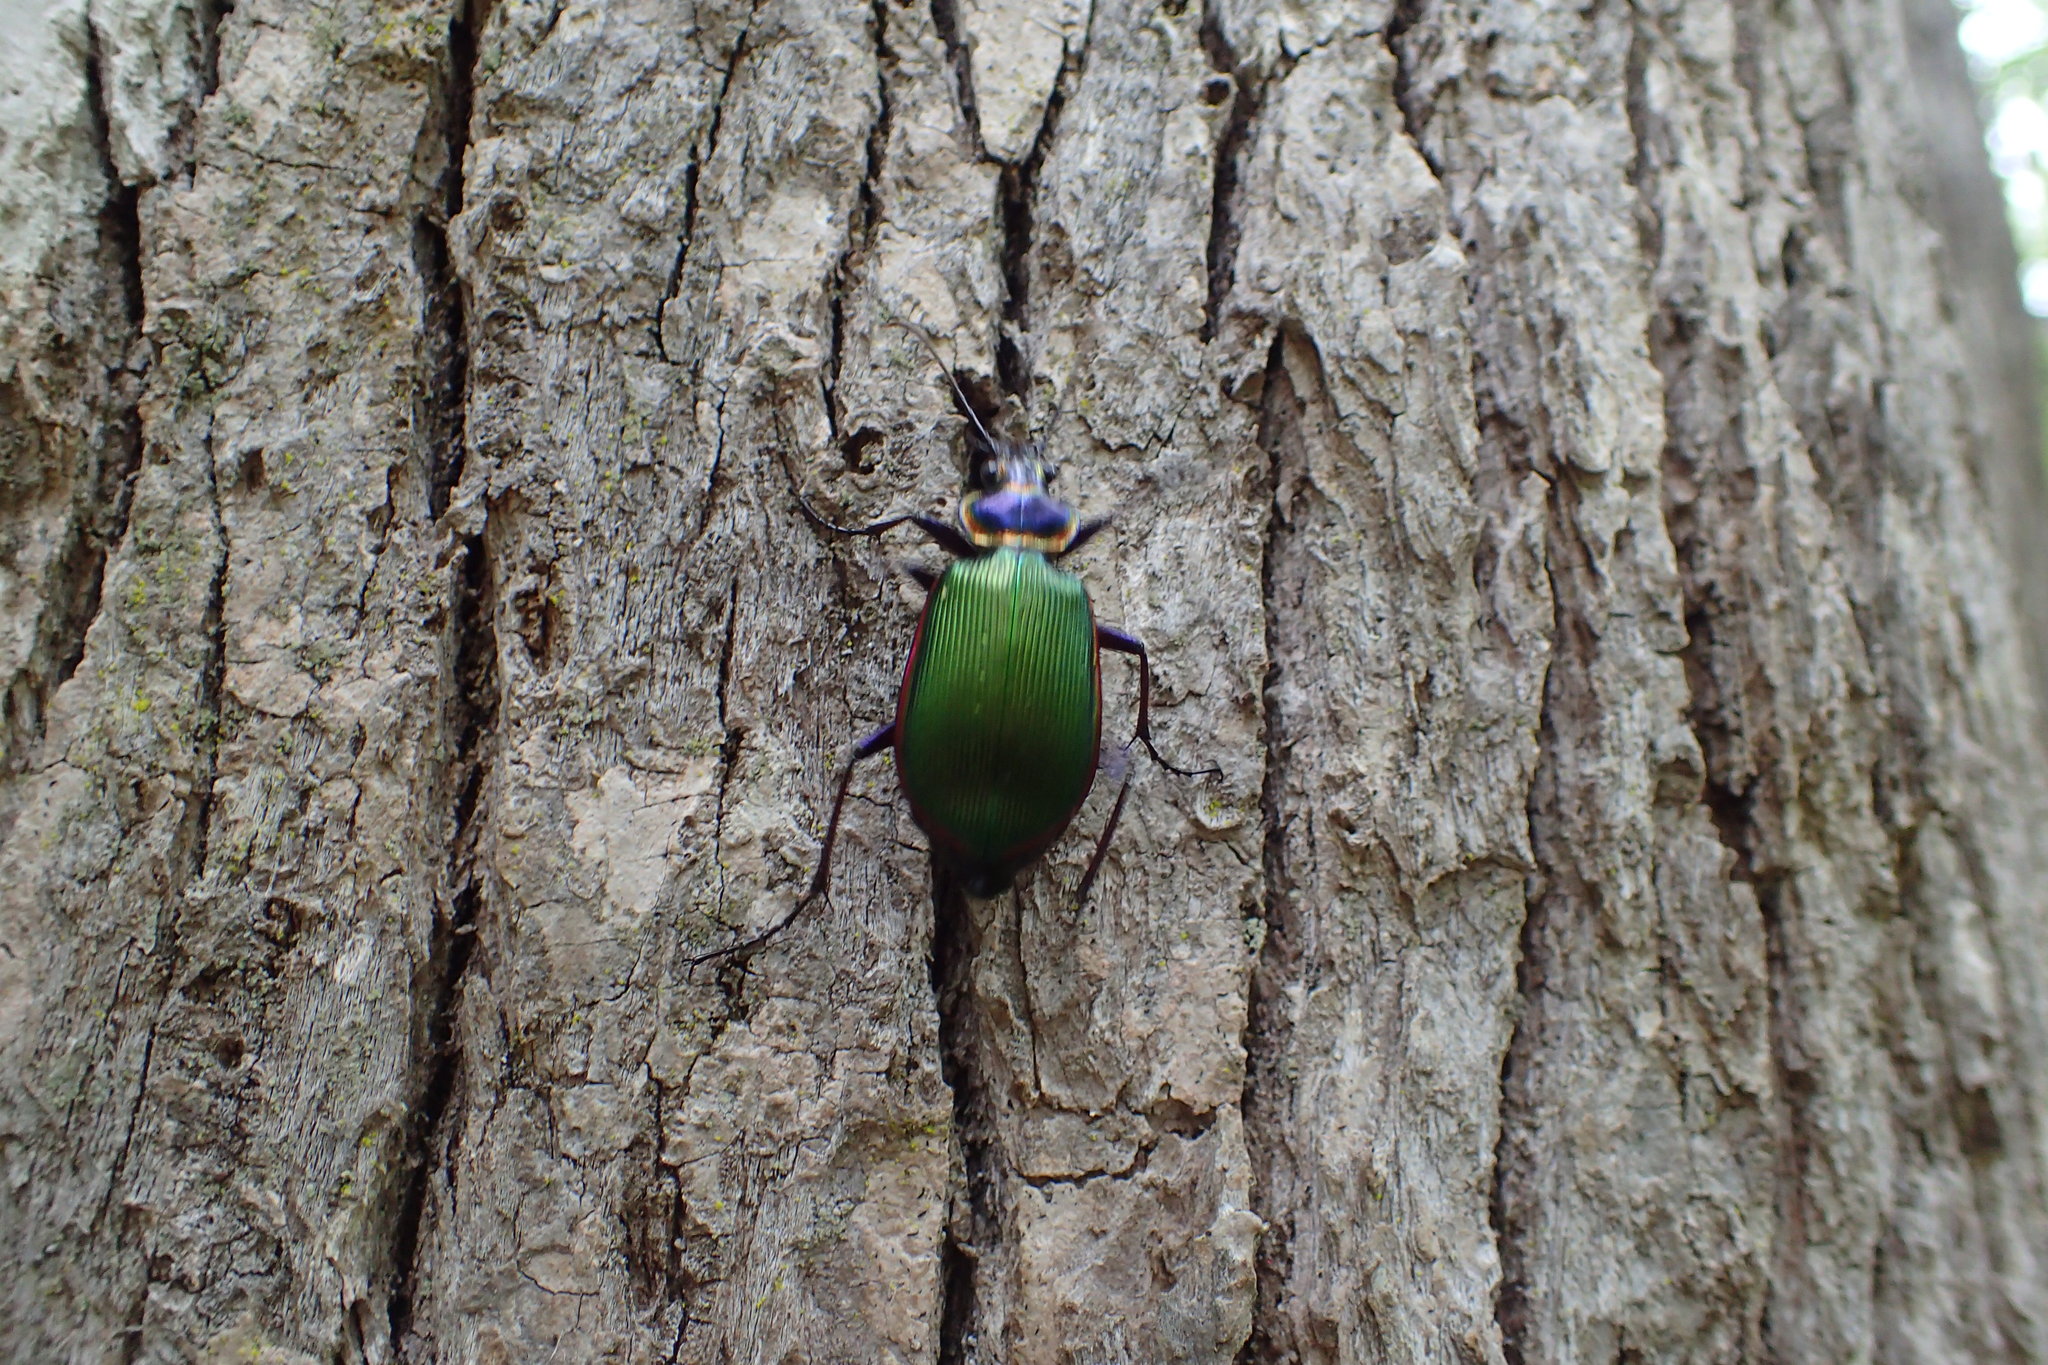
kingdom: Animalia
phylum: Arthropoda
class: Insecta
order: Coleoptera
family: Carabidae
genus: Calosoma
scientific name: Calosoma scrutator
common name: Fiery searcher beetle
